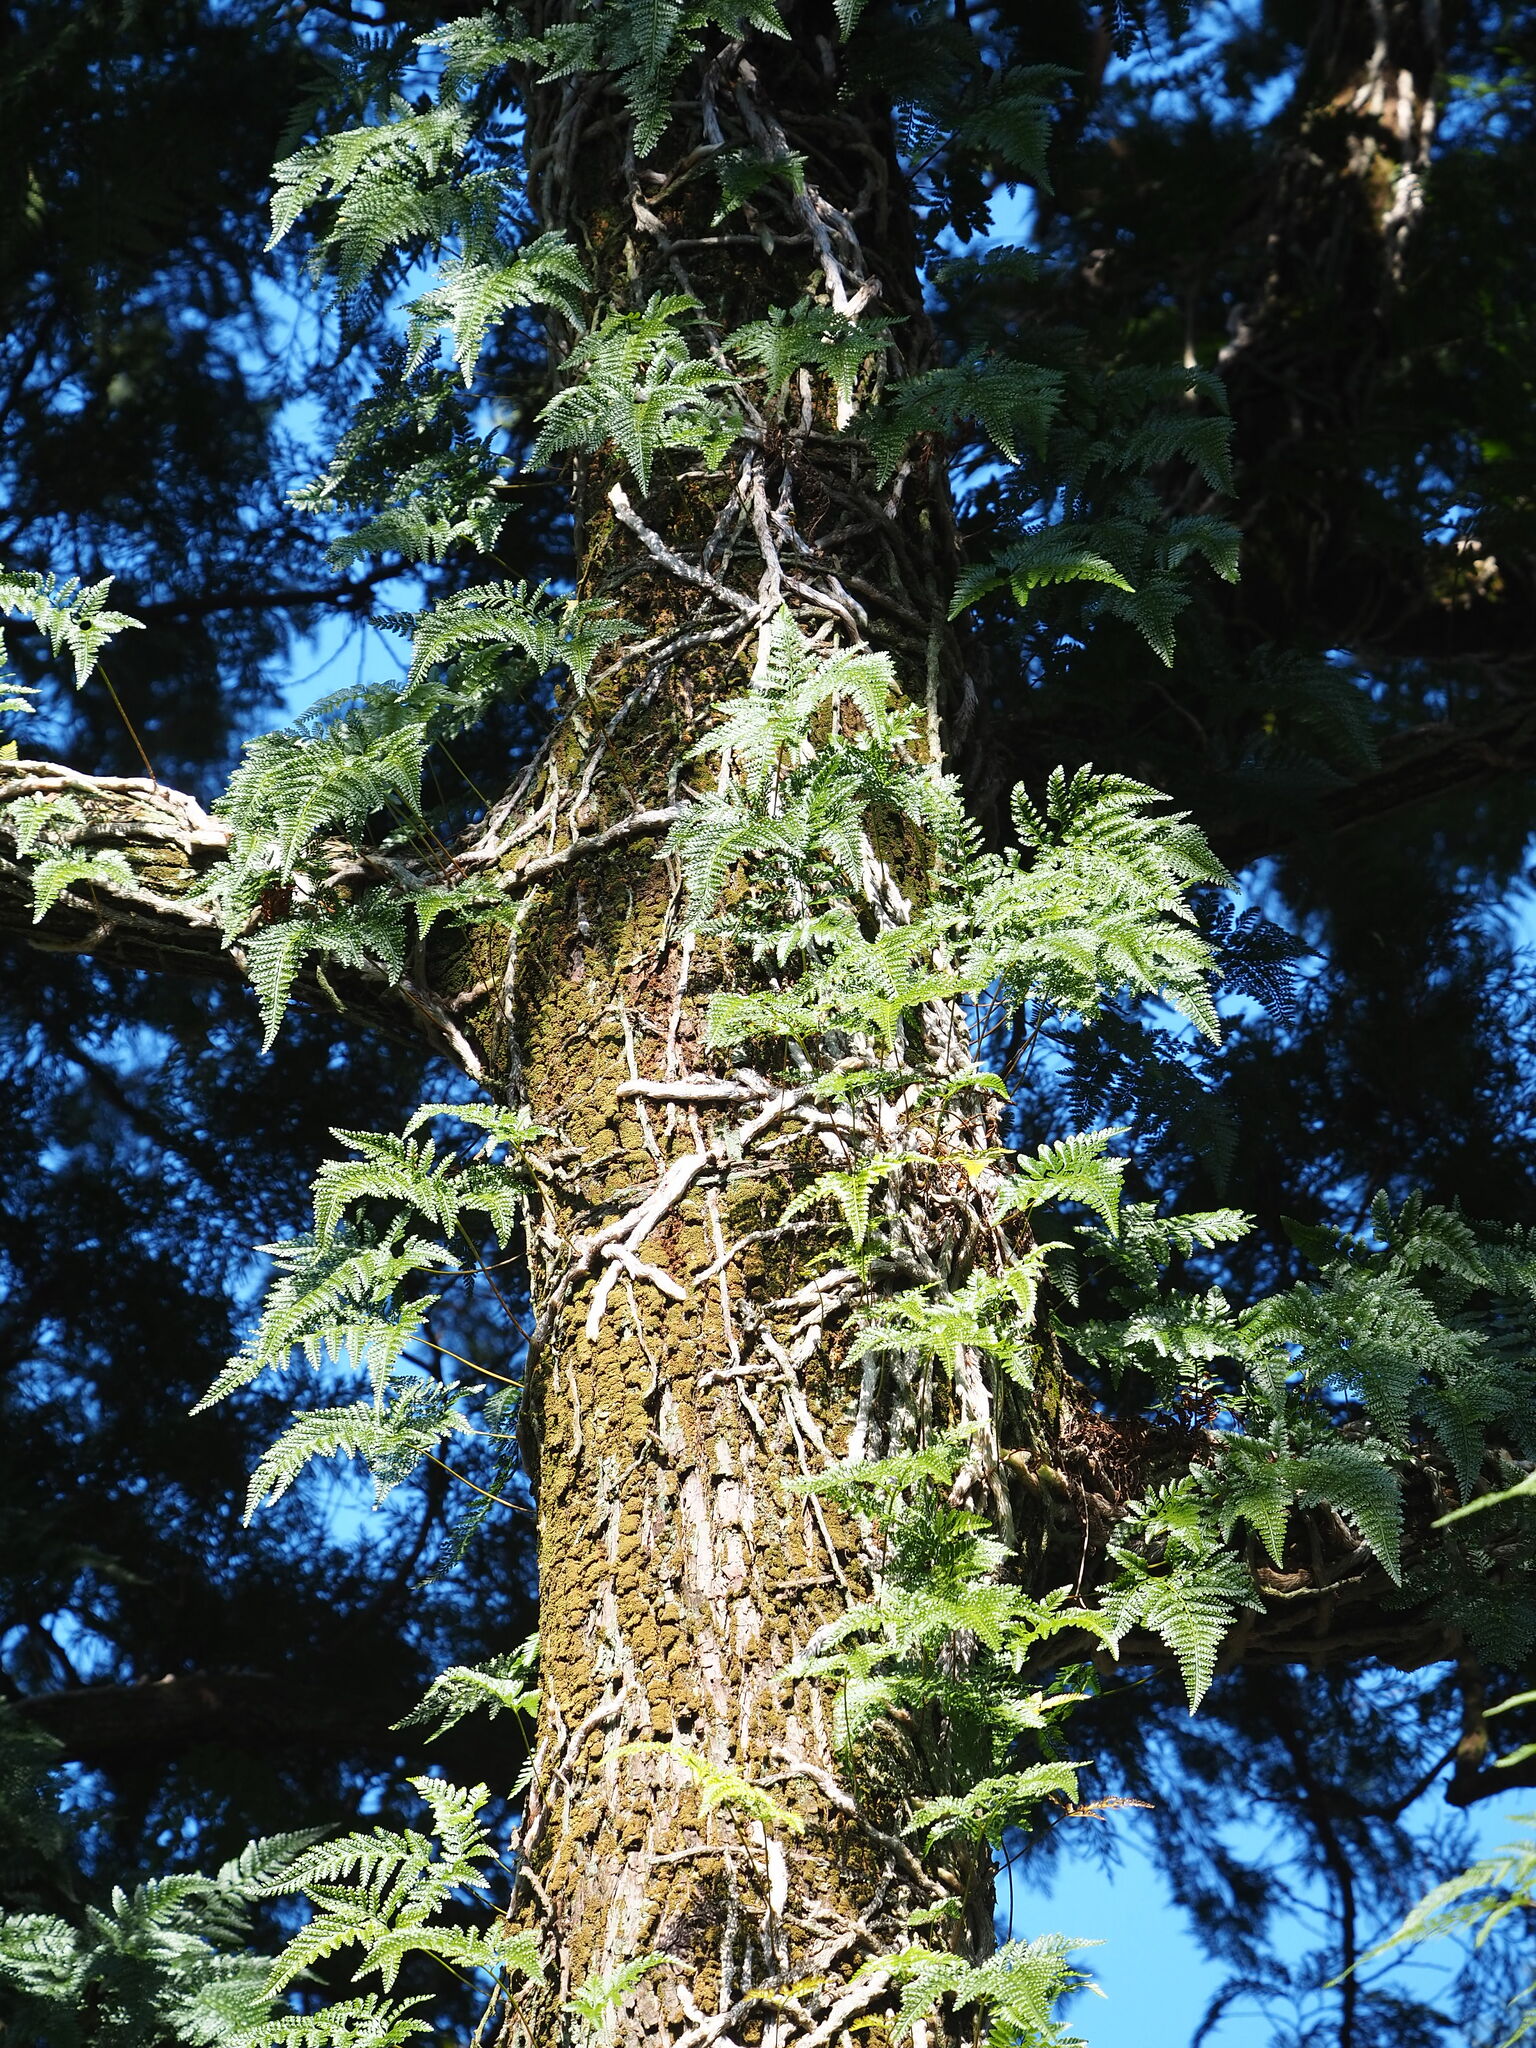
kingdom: Plantae
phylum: Tracheophyta
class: Polypodiopsida
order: Polypodiales
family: Davalliaceae
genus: Davallia
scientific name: Davallia griffithiana
